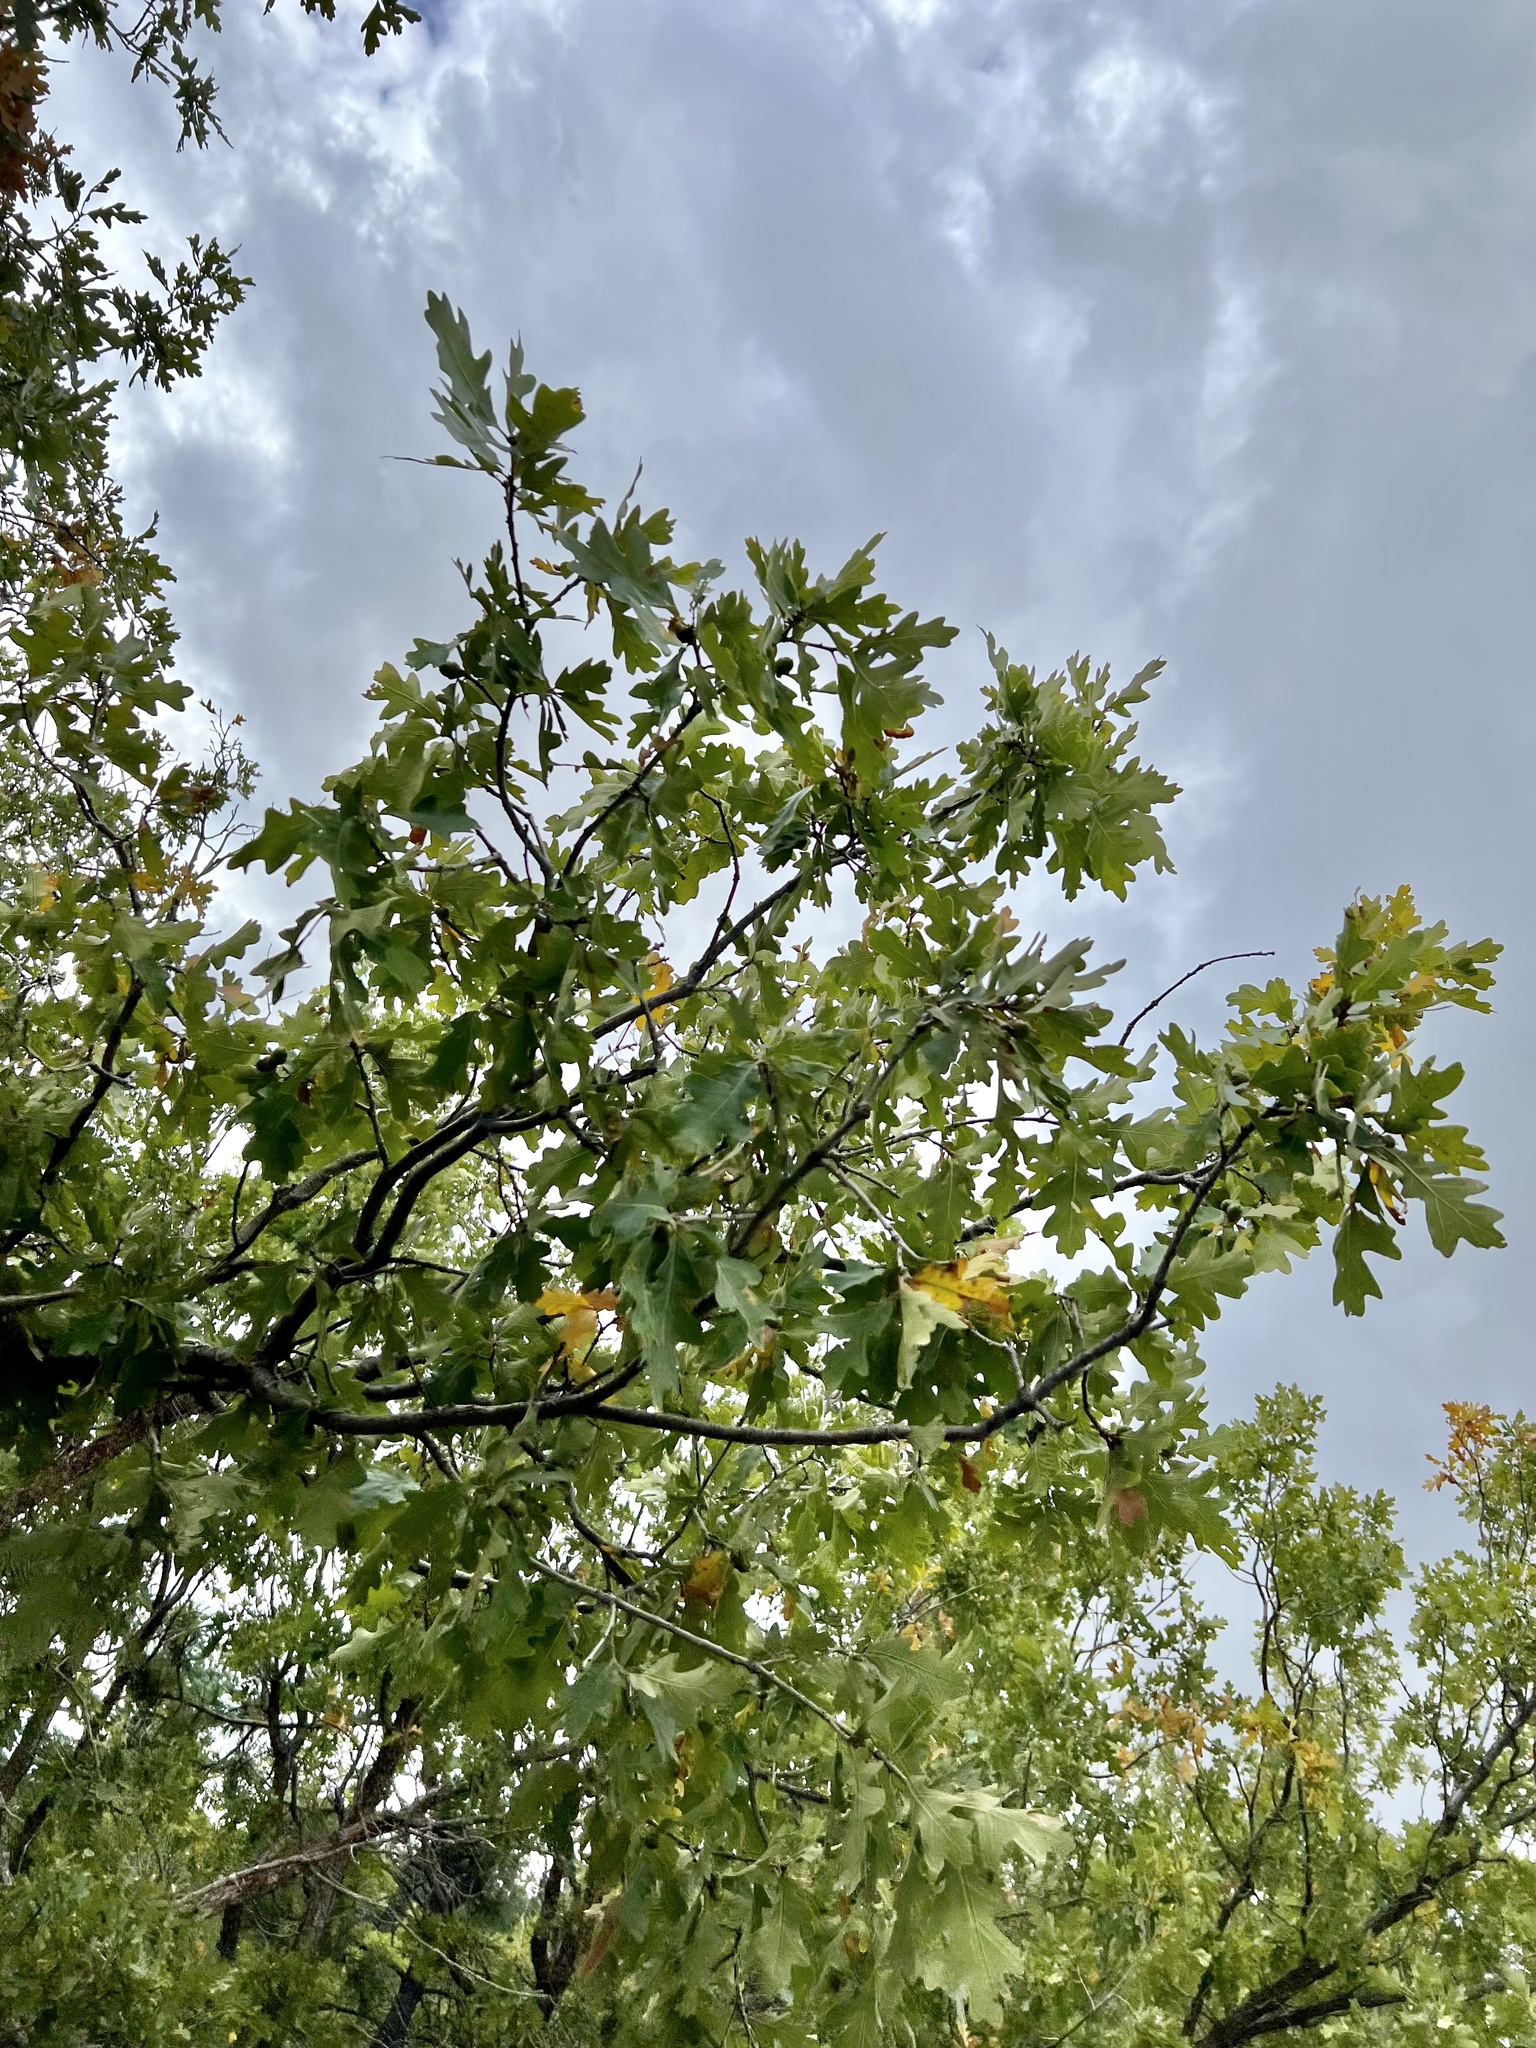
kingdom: Plantae
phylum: Tracheophyta
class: Magnoliopsida
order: Fagales
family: Fagaceae
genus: Quercus
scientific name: Quercus gambelii
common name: Gambel oak
